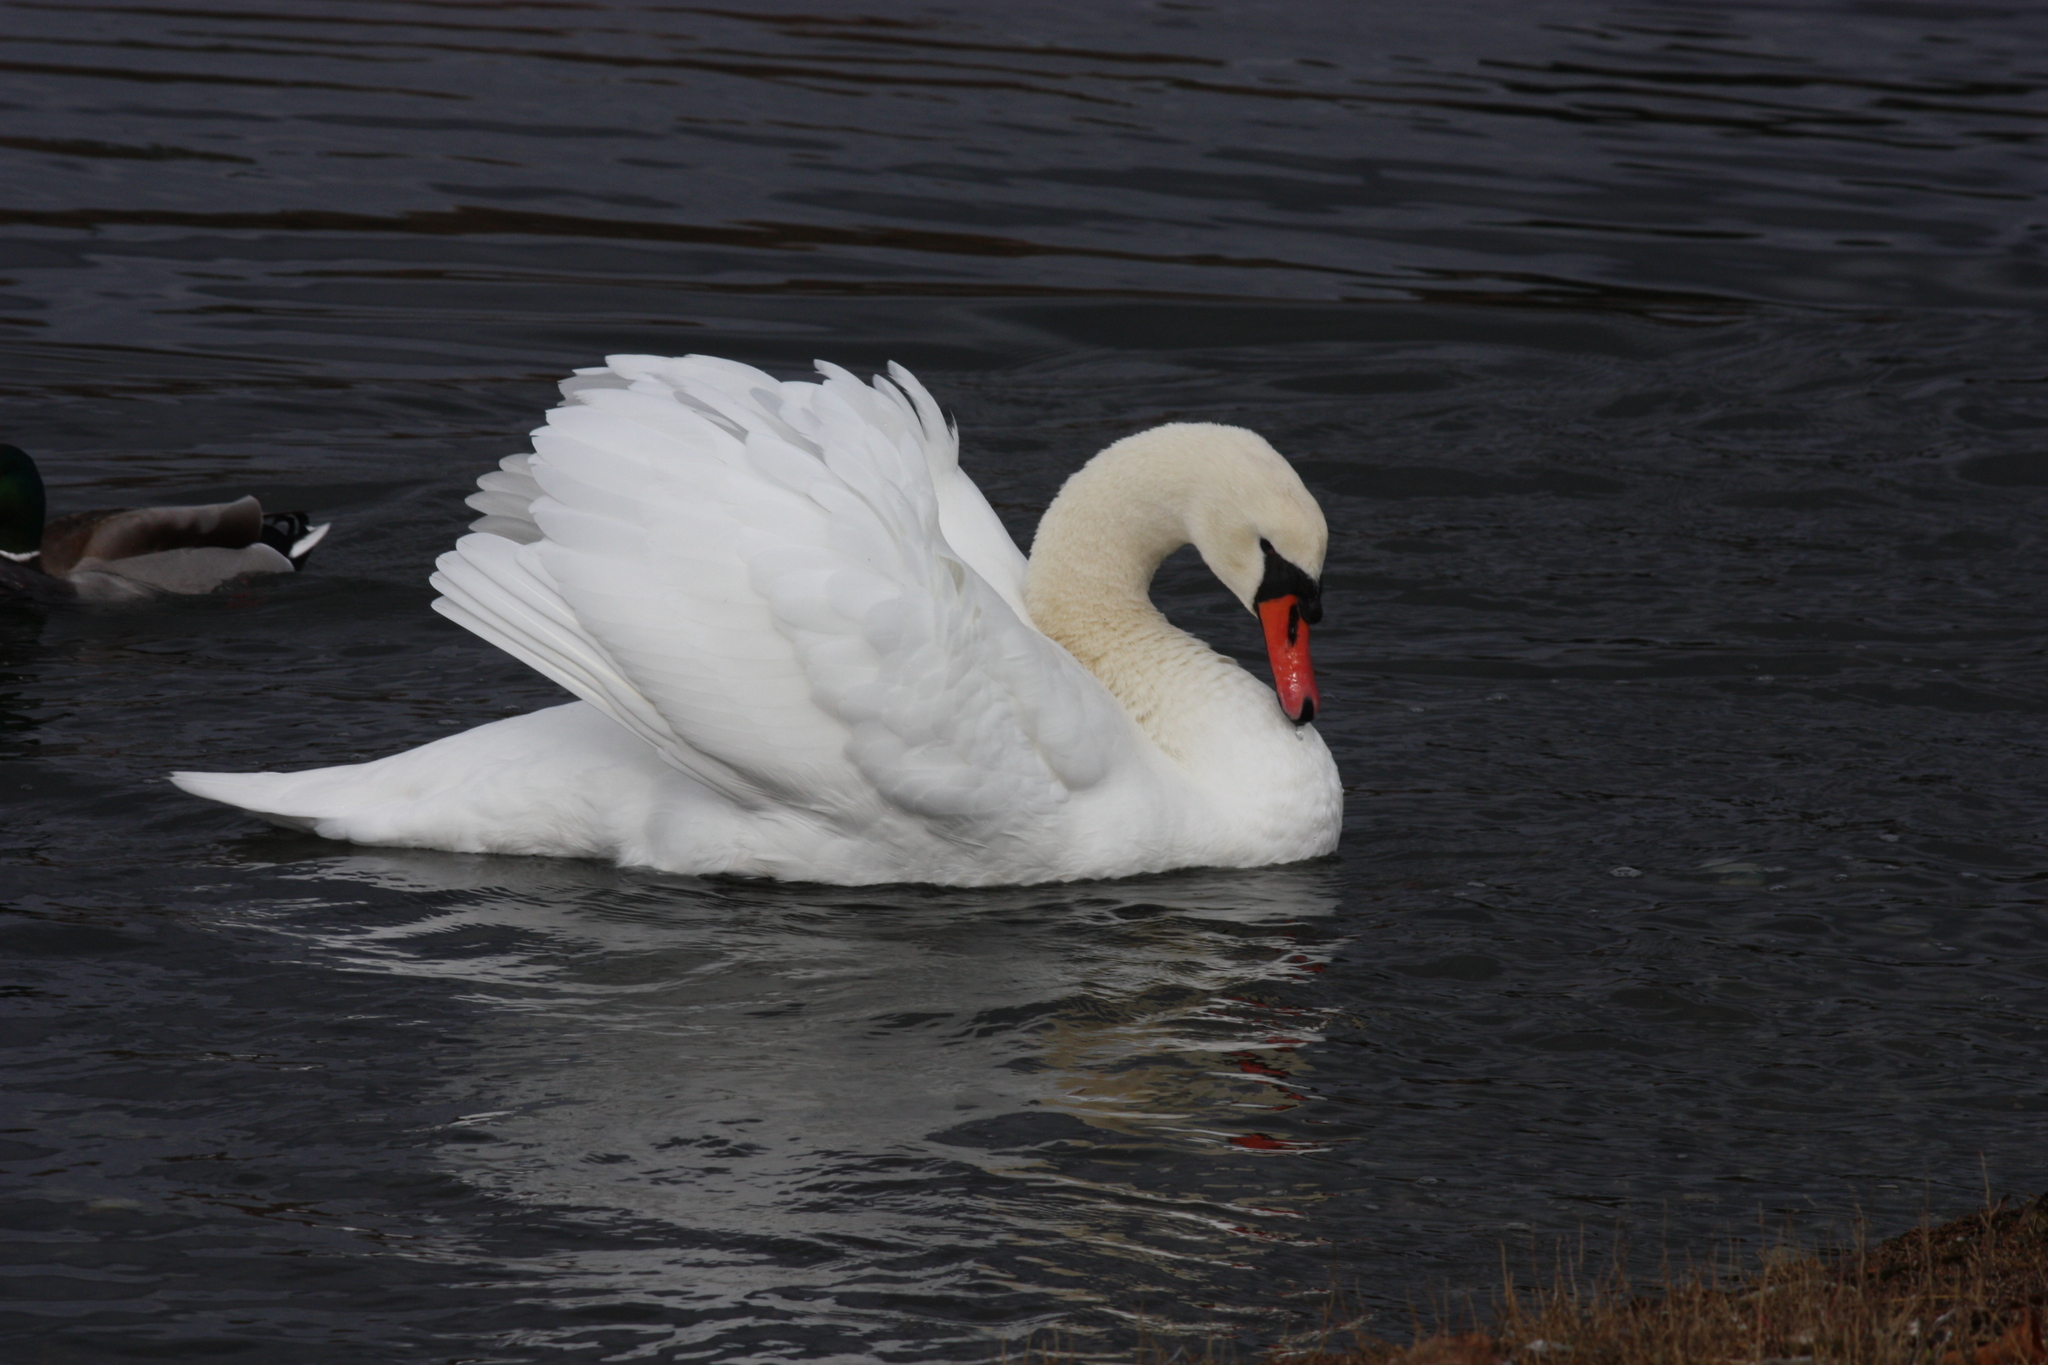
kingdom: Animalia
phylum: Chordata
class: Aves
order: Anseriformes
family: Anatidae
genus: Cygnus
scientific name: Cygnus olor
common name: Mute swan
